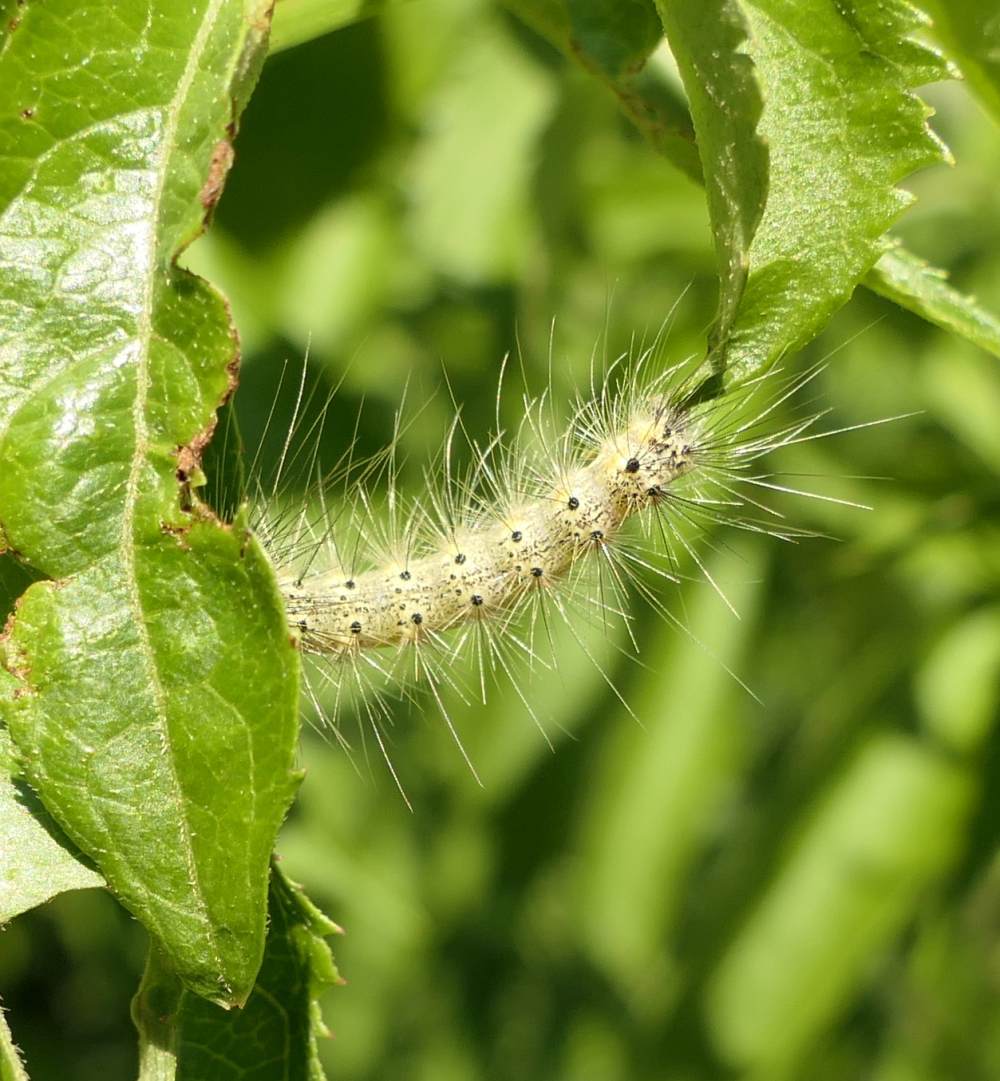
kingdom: Animalia
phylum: Arthropoda
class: Insecta
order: Lepidoptera
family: Erebidae
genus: Hyphantria
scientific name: Hyphantria cunea
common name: American white moth
